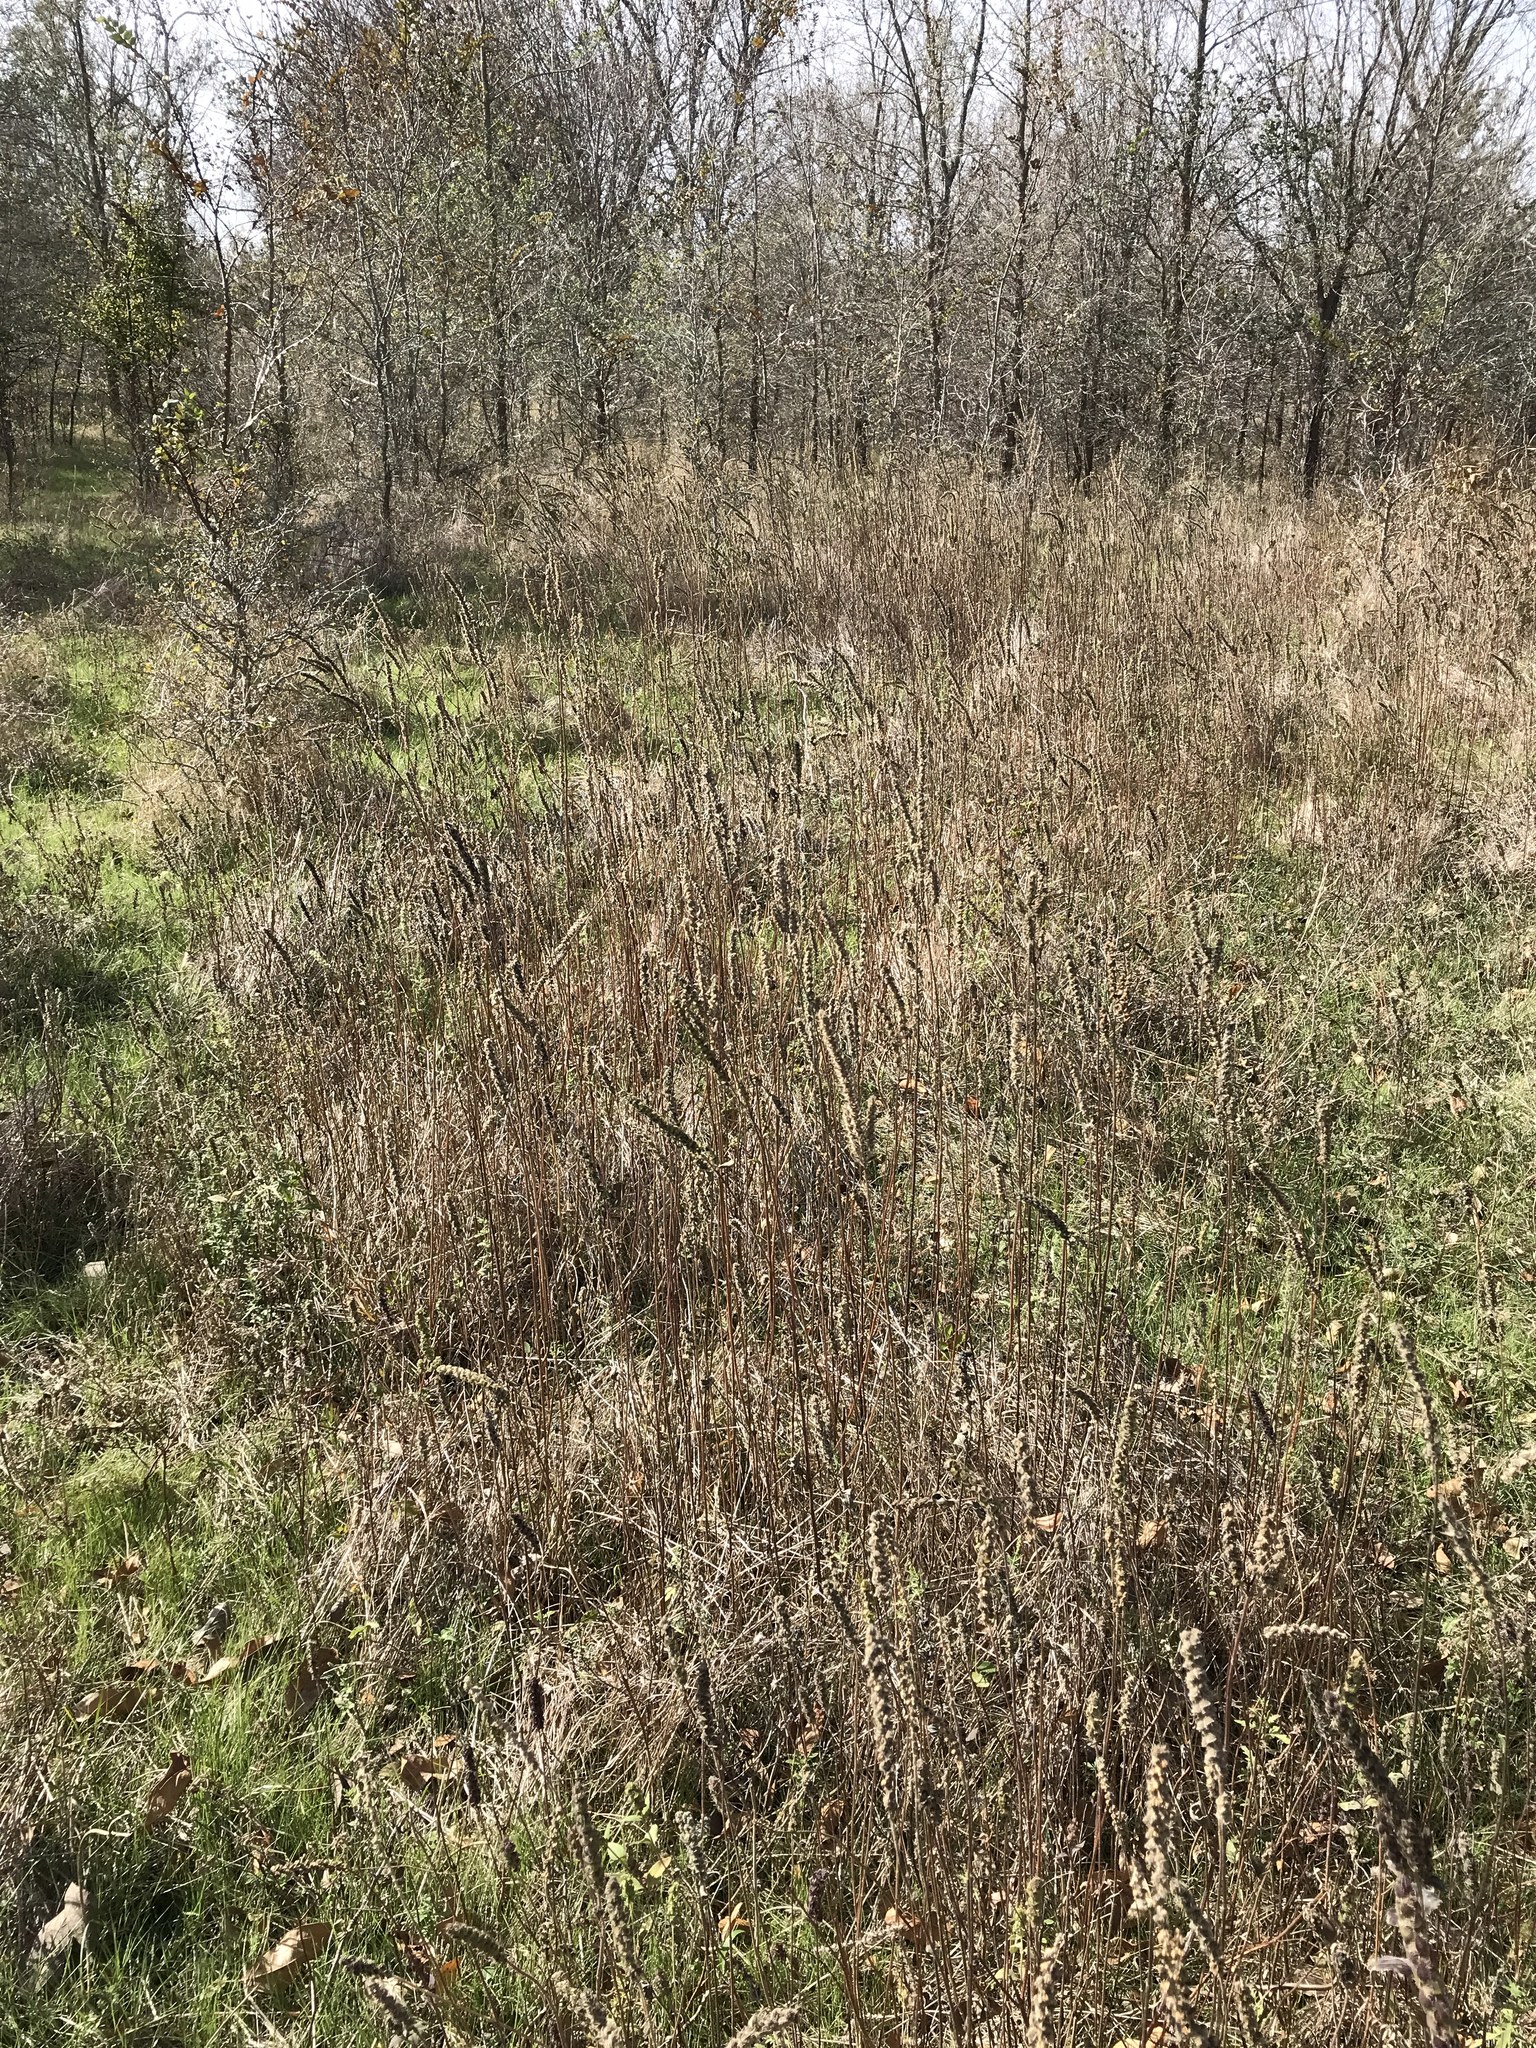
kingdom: Plantae
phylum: Tracheophyta
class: Magnoliopsida
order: Asterales
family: Asteraceae
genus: Iva
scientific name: Iva annua
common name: Marsh-elder
